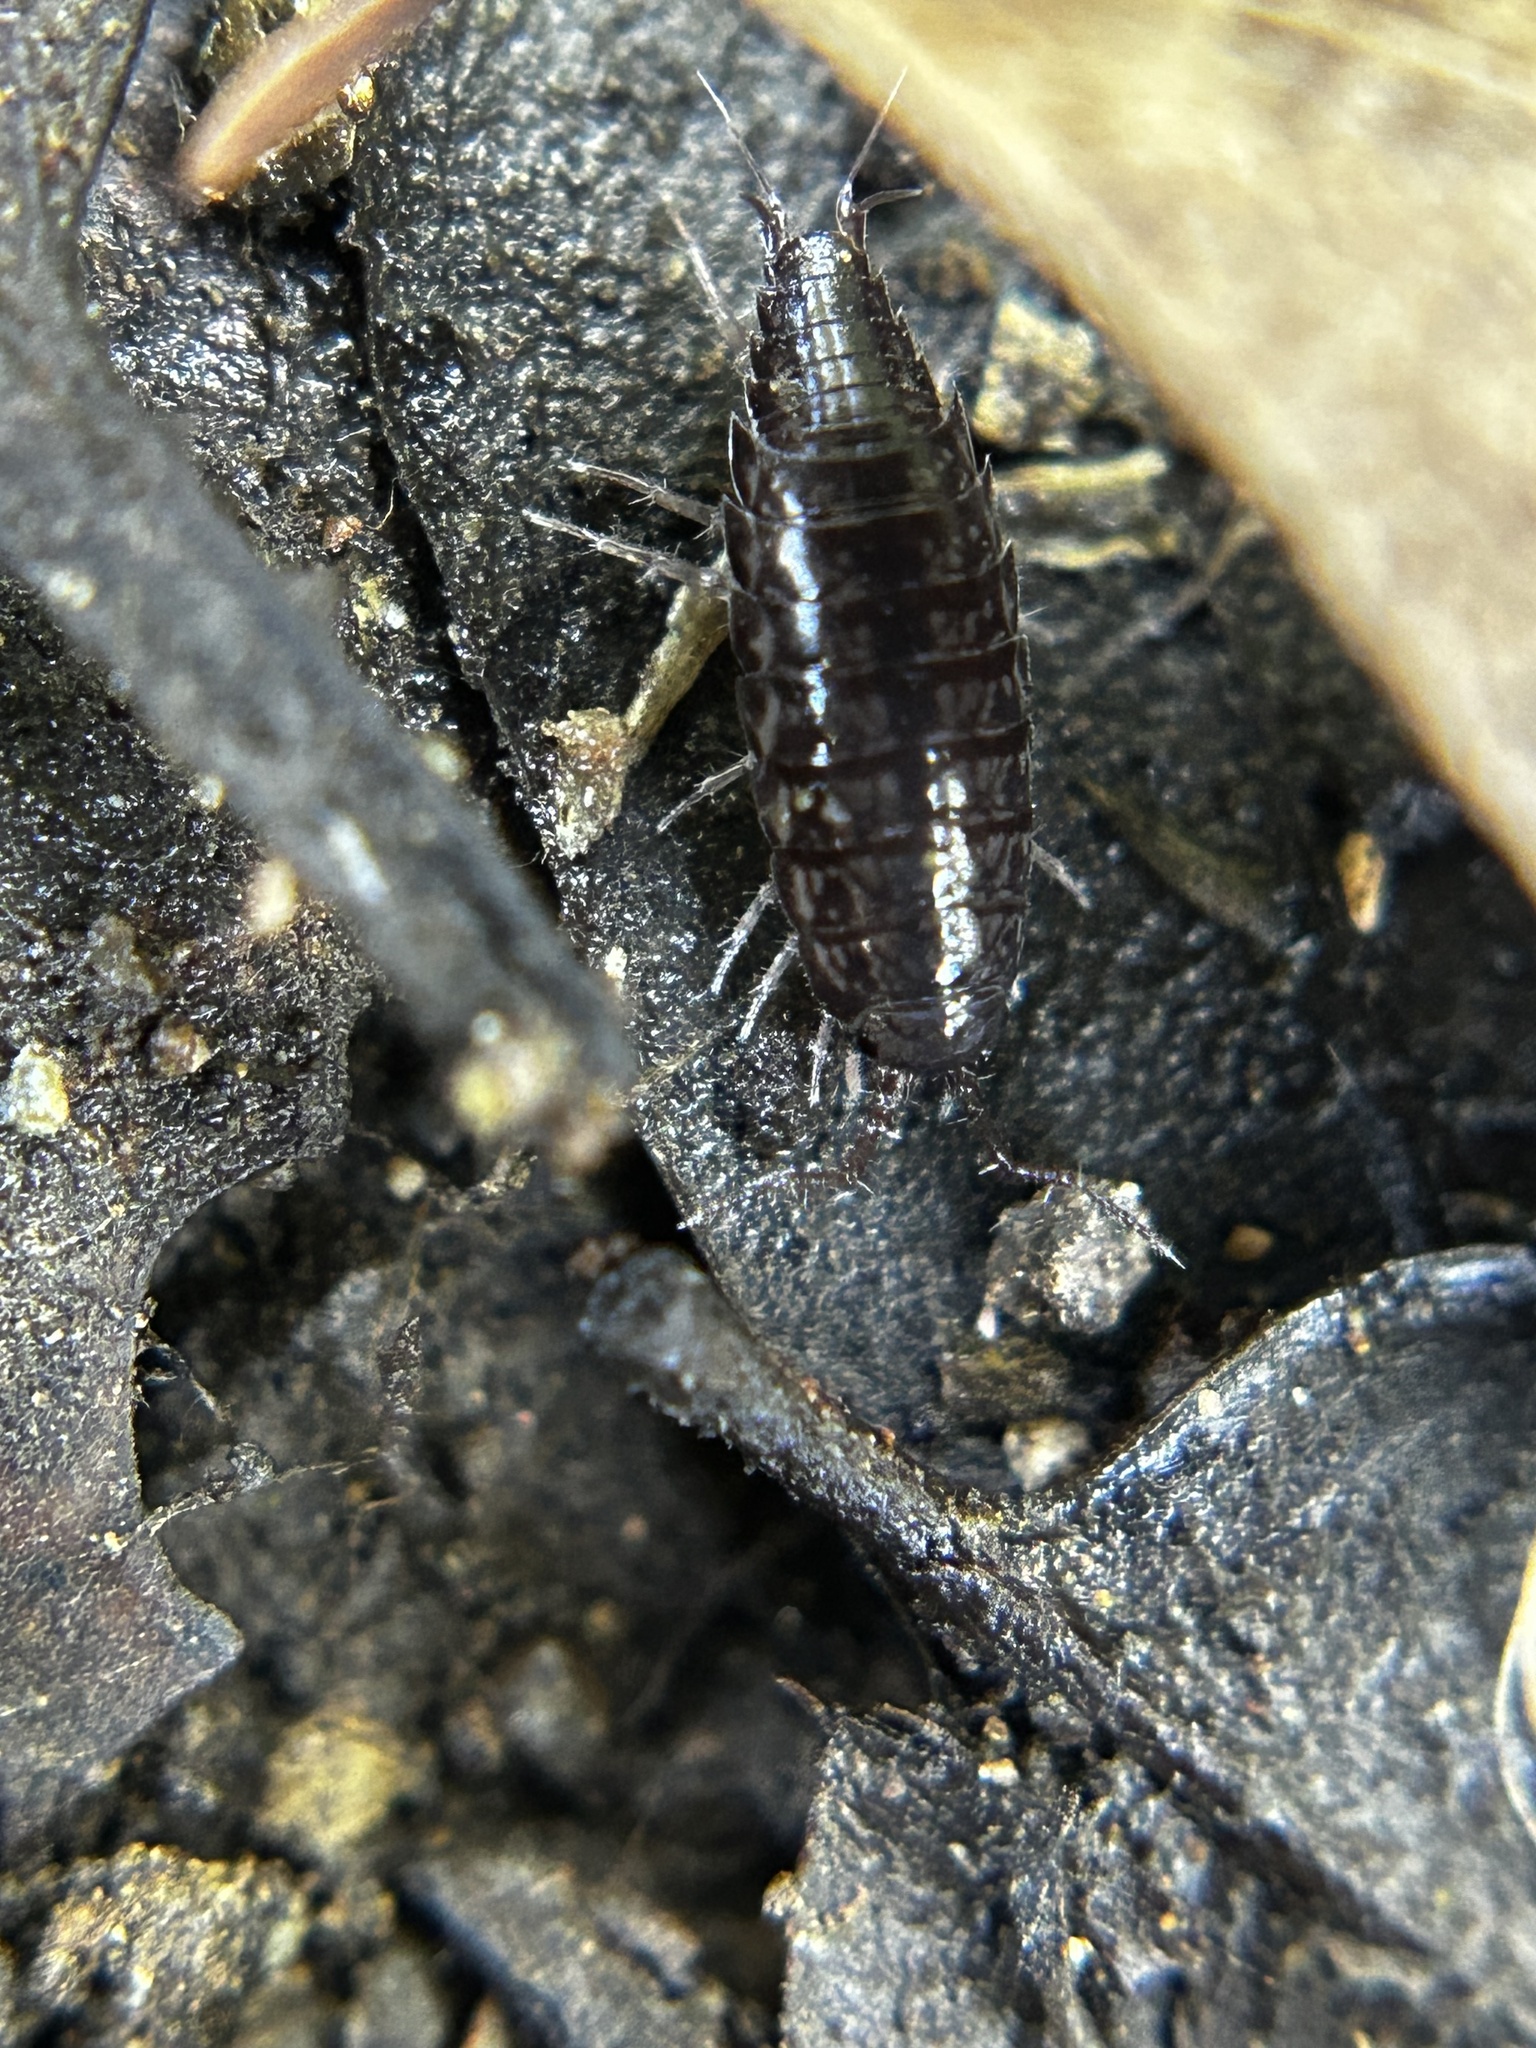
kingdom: Animalia
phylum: Arthropoda
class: Malacostraca
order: Isopoda
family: Ligiidae
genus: Ligidium
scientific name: Ligidium gracile
